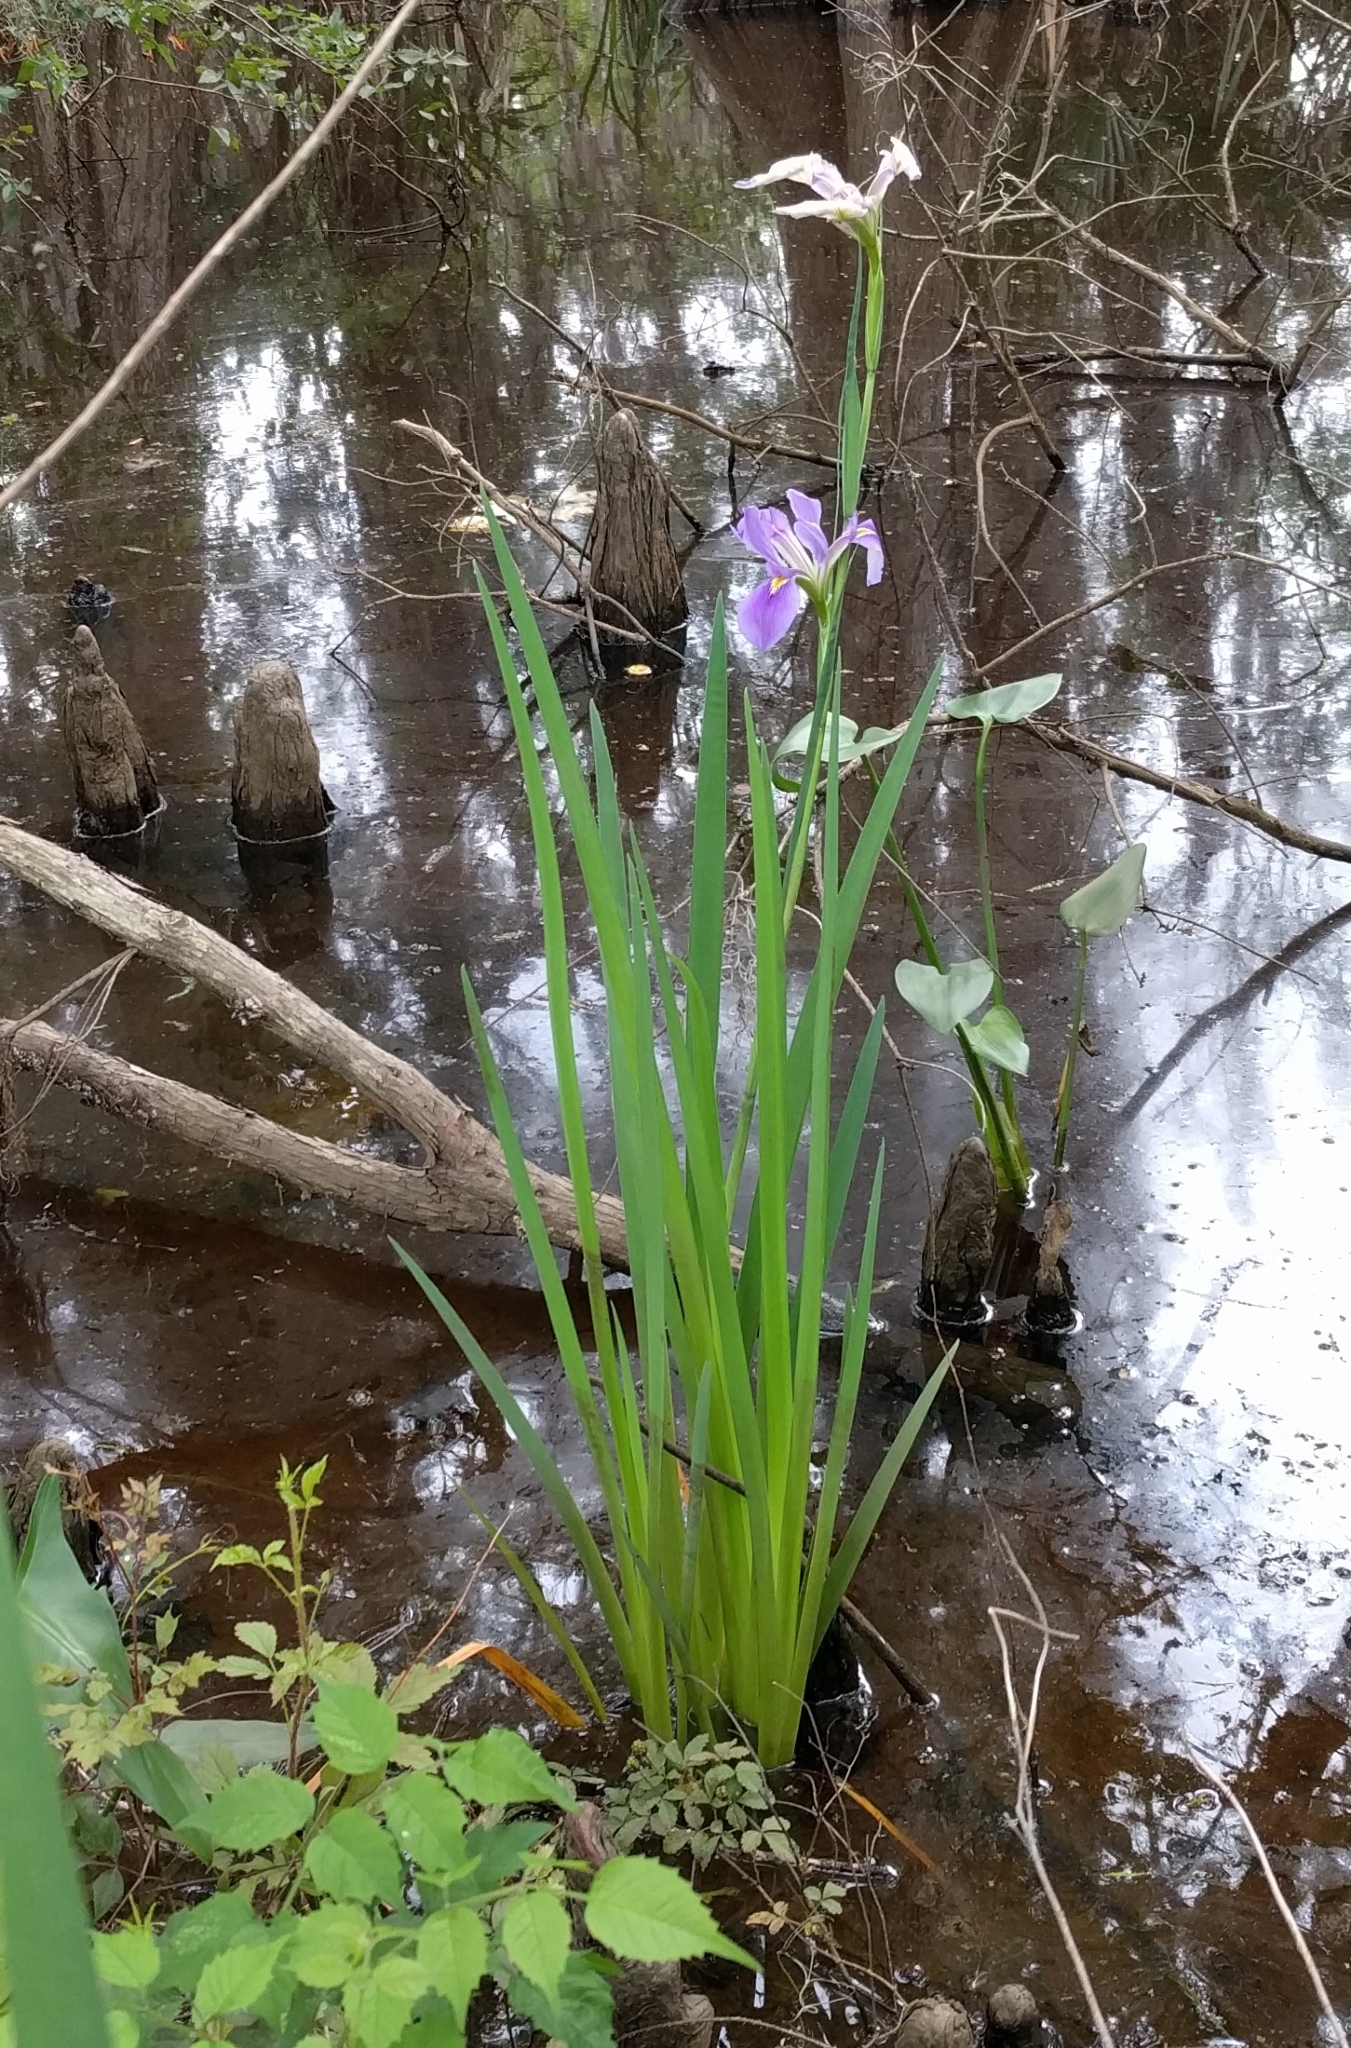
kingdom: Plantae
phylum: Tracheophyta
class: Liliopsida
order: Asparagales
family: Iridaceae
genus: Iris
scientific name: Iris giganticaerulea
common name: Giant blue iris
